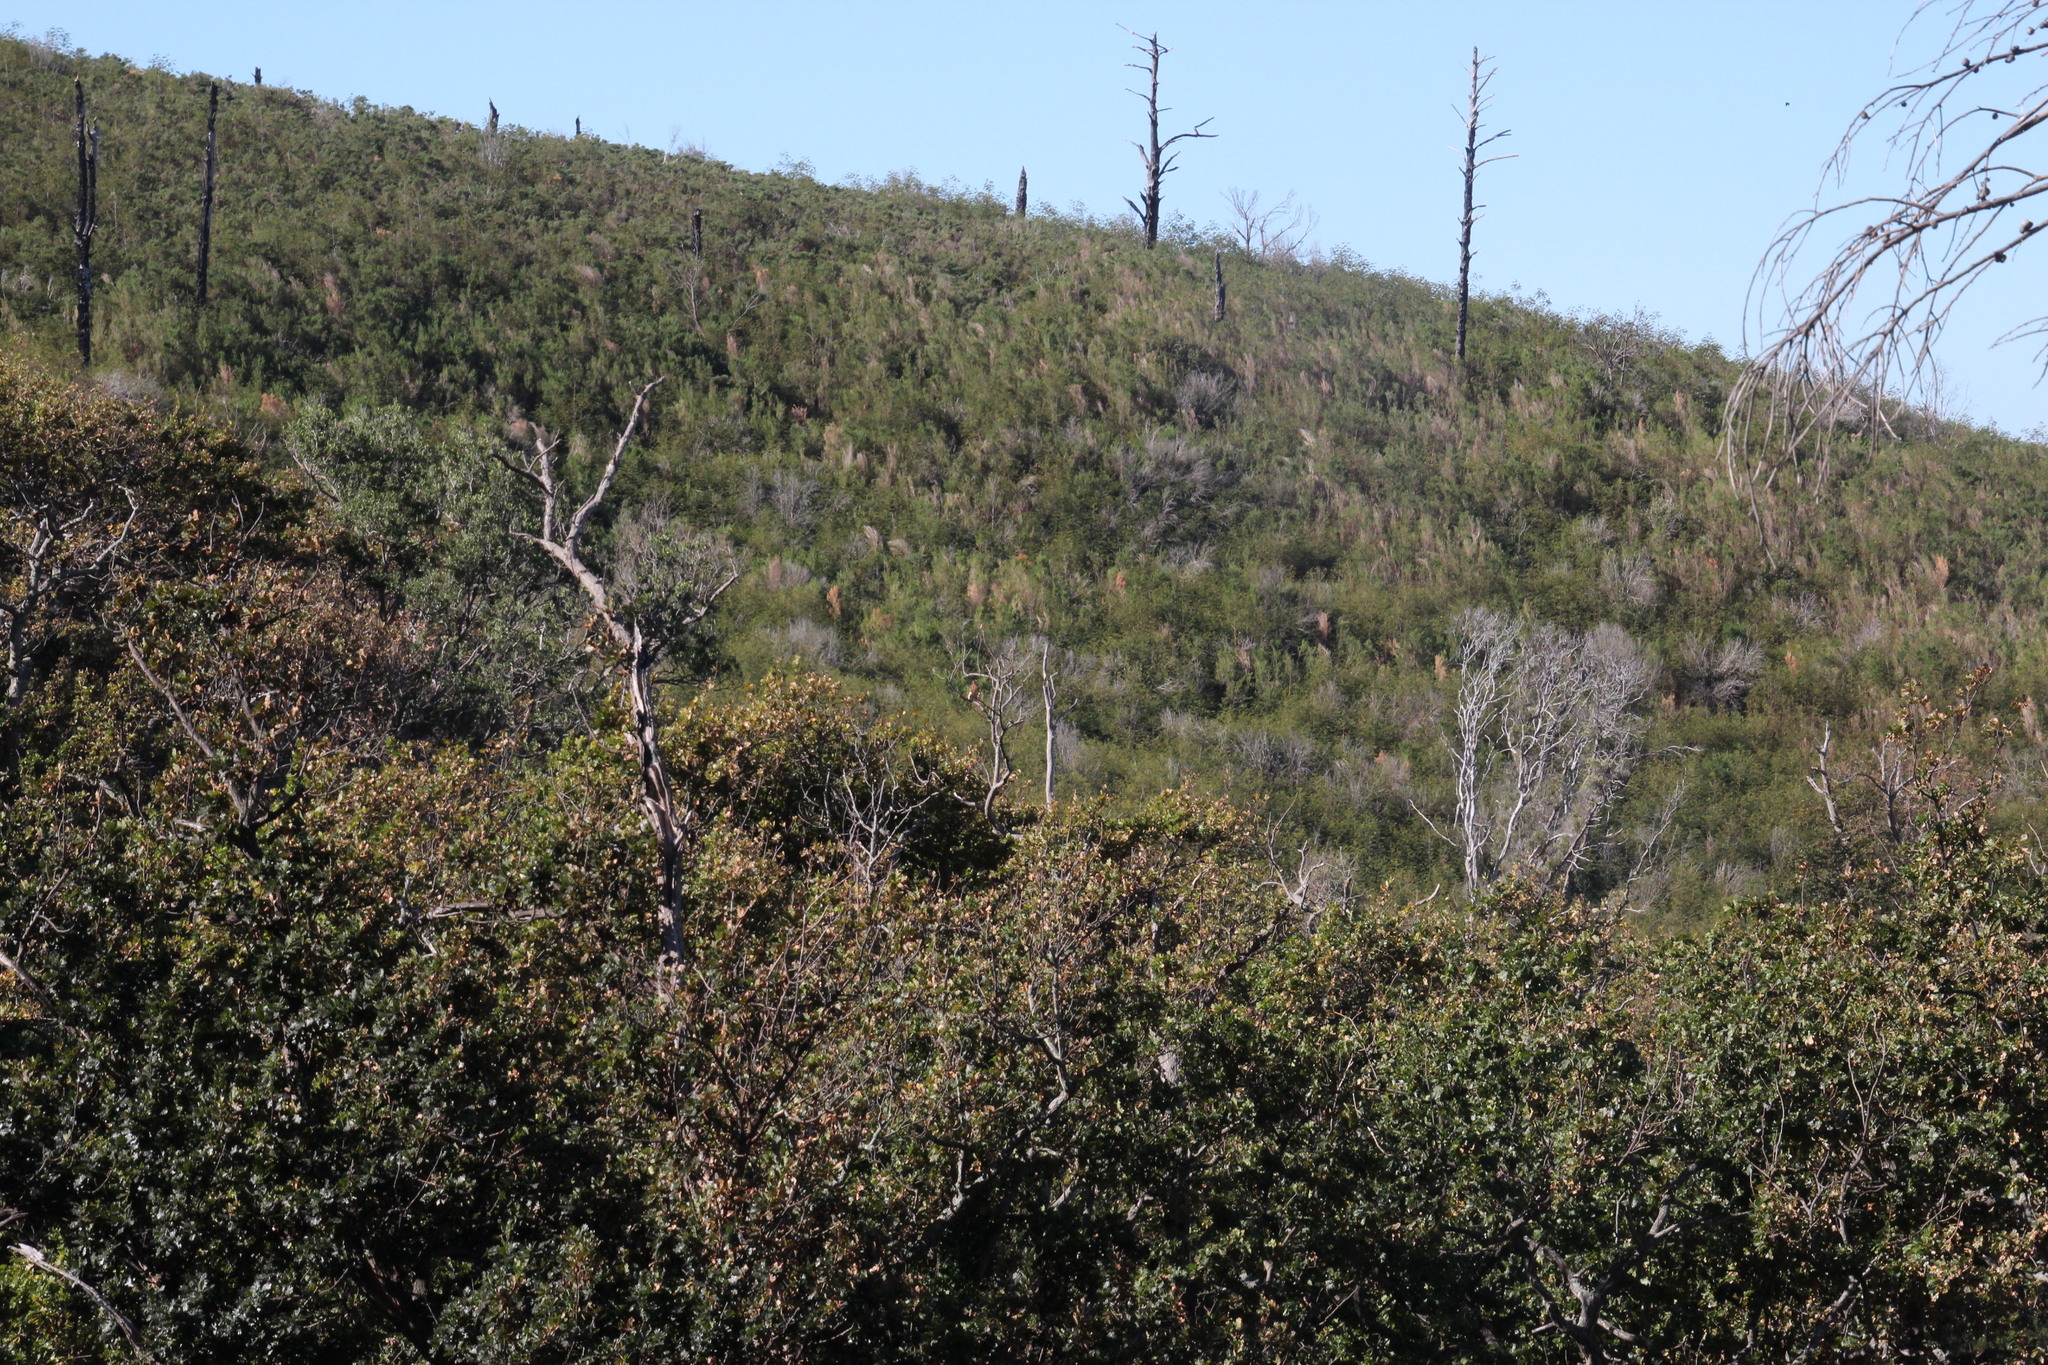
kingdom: Plantae
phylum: Tracheophyta
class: Magnoliopsida
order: Fabales
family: Fabaceae
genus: Paraserianthes
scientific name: Paraserianthes lophantha
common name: Plume albizia
